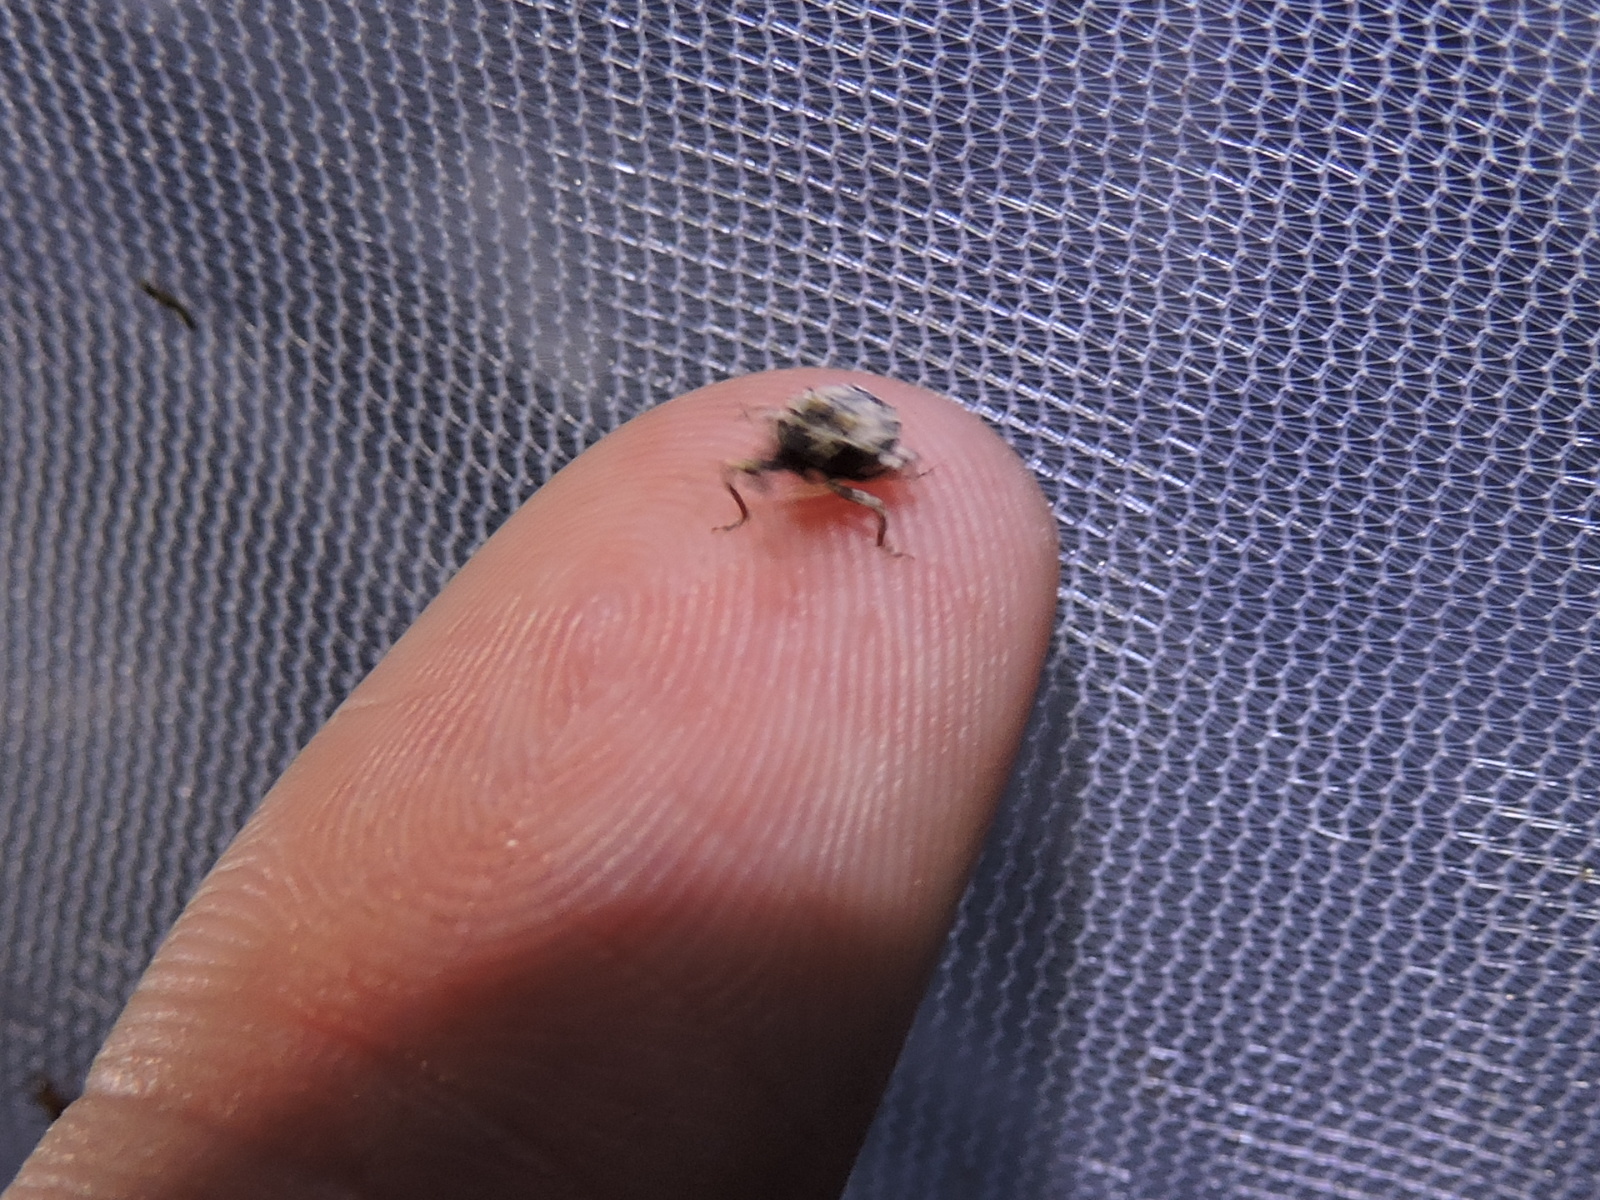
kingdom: Animalia
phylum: Arthropoda
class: Insecta
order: Coleoptera
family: Curculionidae
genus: Conotrachelus
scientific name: Conotrachelus leucophaeatus
